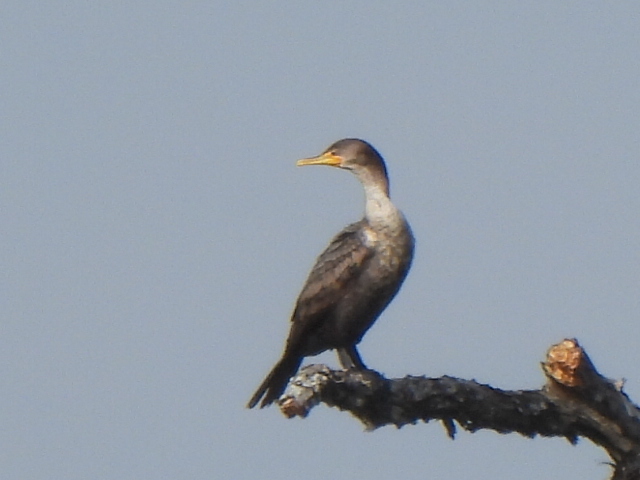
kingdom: Animalia
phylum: Chordata
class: Aves
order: Suliformes
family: Phalacrocoracidae
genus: Phalacrocorax
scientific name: Phalacrocorax auritus
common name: Double-crested cormorant
